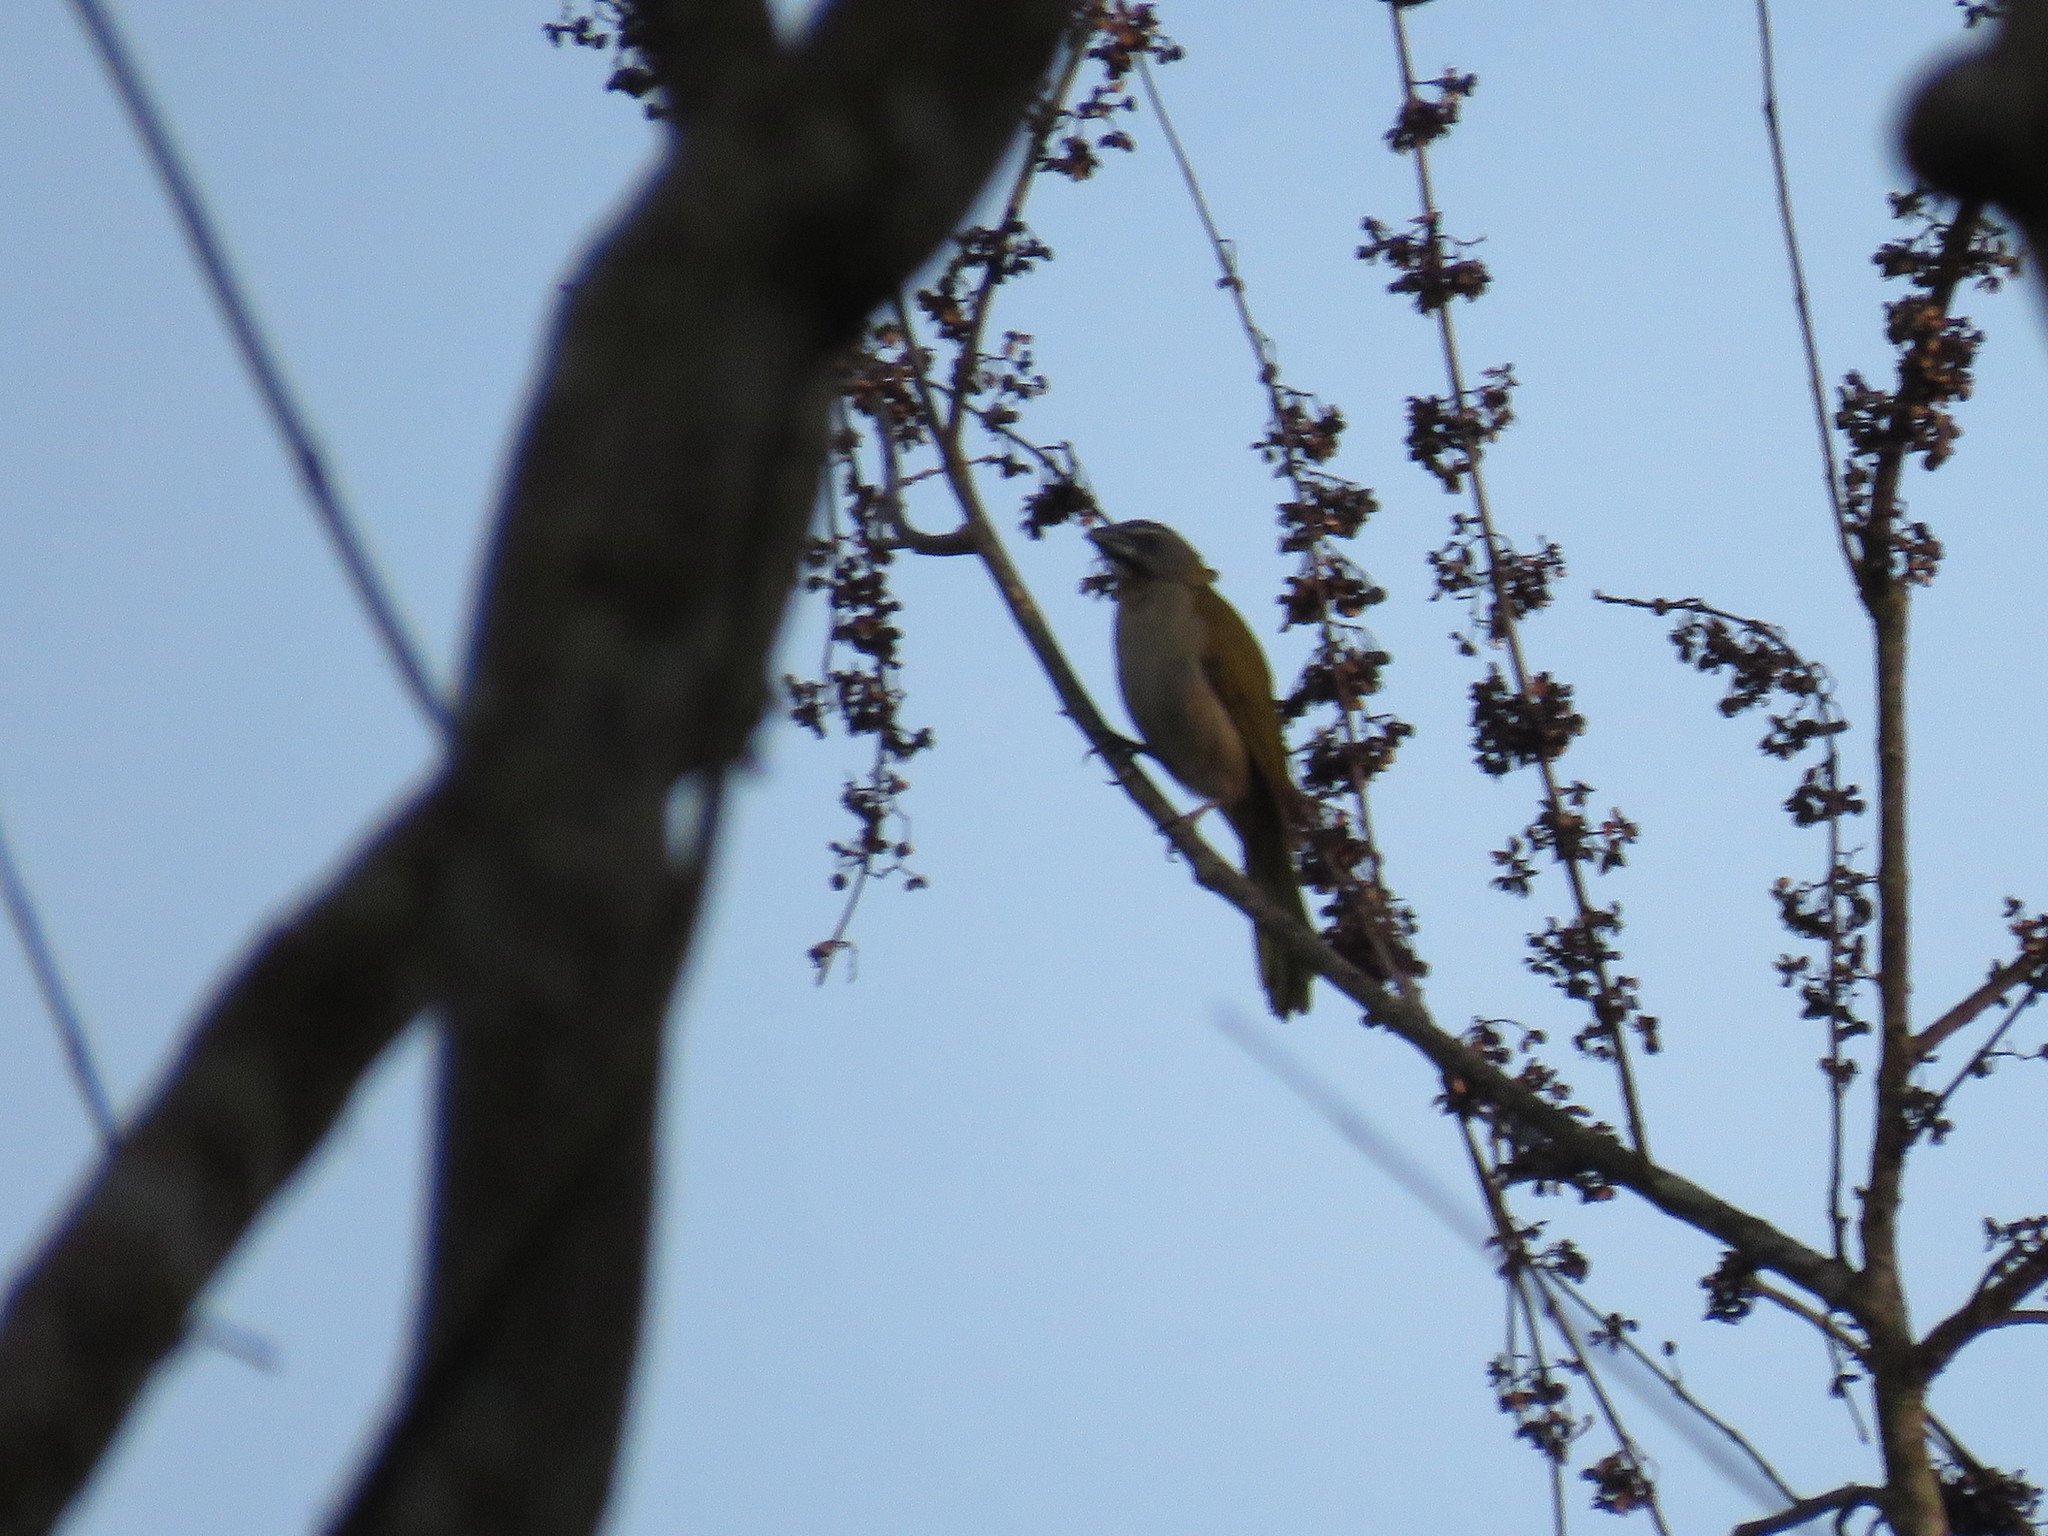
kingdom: Animalia
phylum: Chordata
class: Aves
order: Passeriformes
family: Thraupidae
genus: Saltator
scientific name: Saltator maximus
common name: Buff-throated saltator
